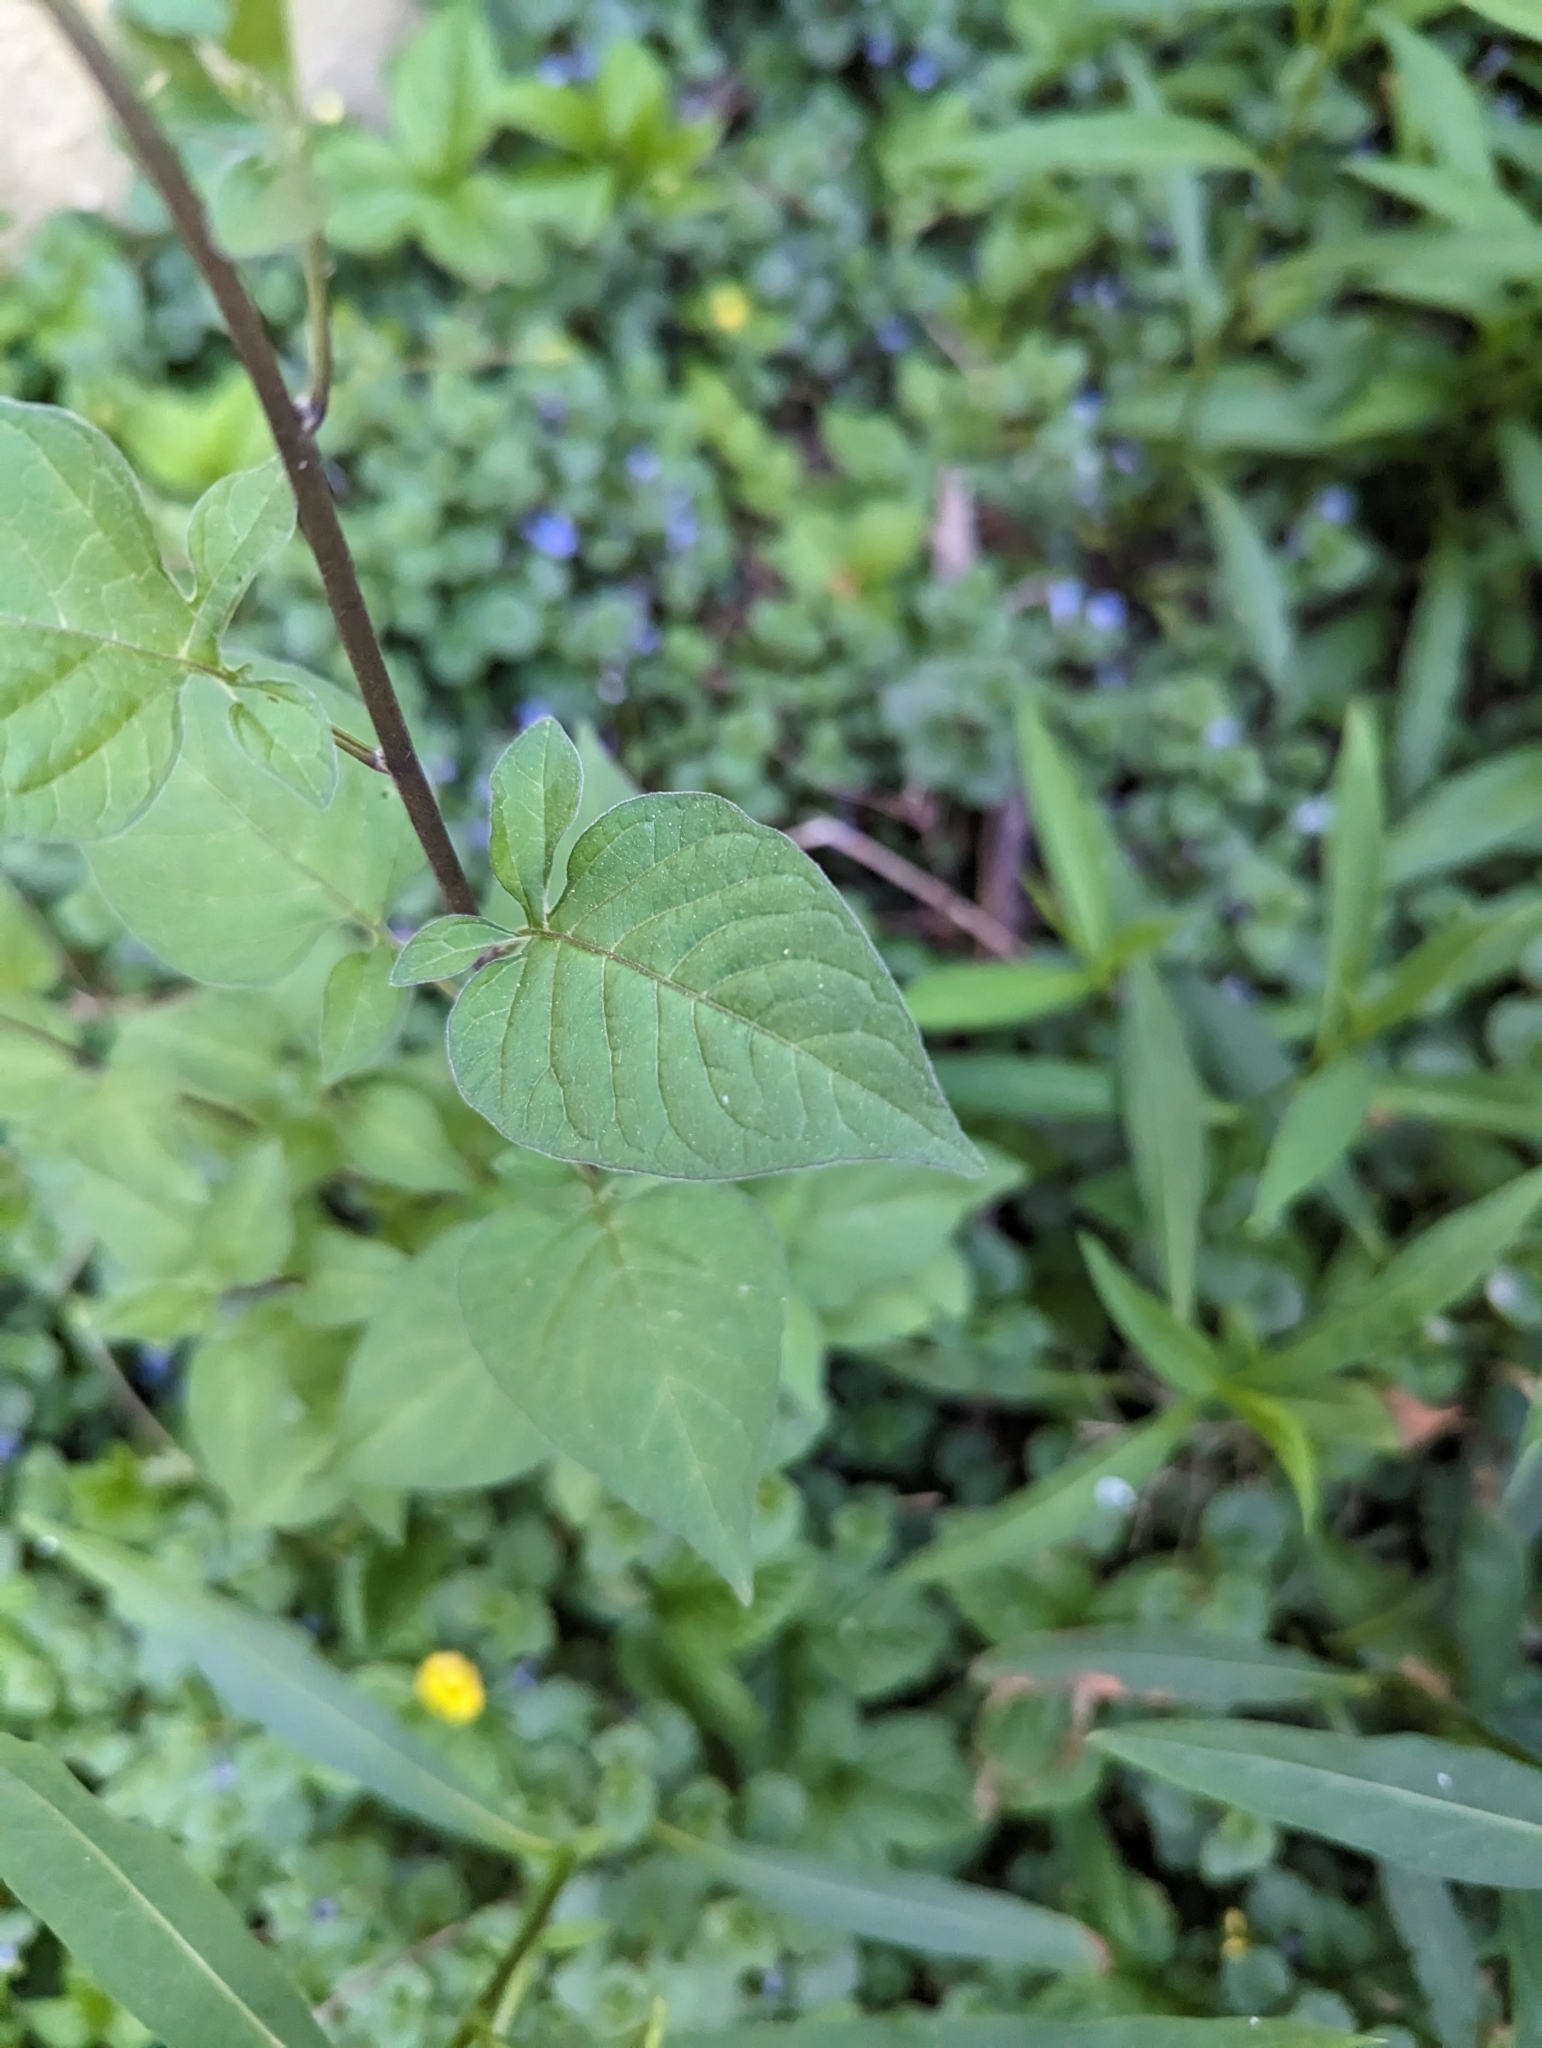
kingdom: Plantae
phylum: Tracheophyta
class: Magnoliopsida
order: Solanales
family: Solanaceae
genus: Solanum
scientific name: Solanum dulcamara
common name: Climbing nightshade
